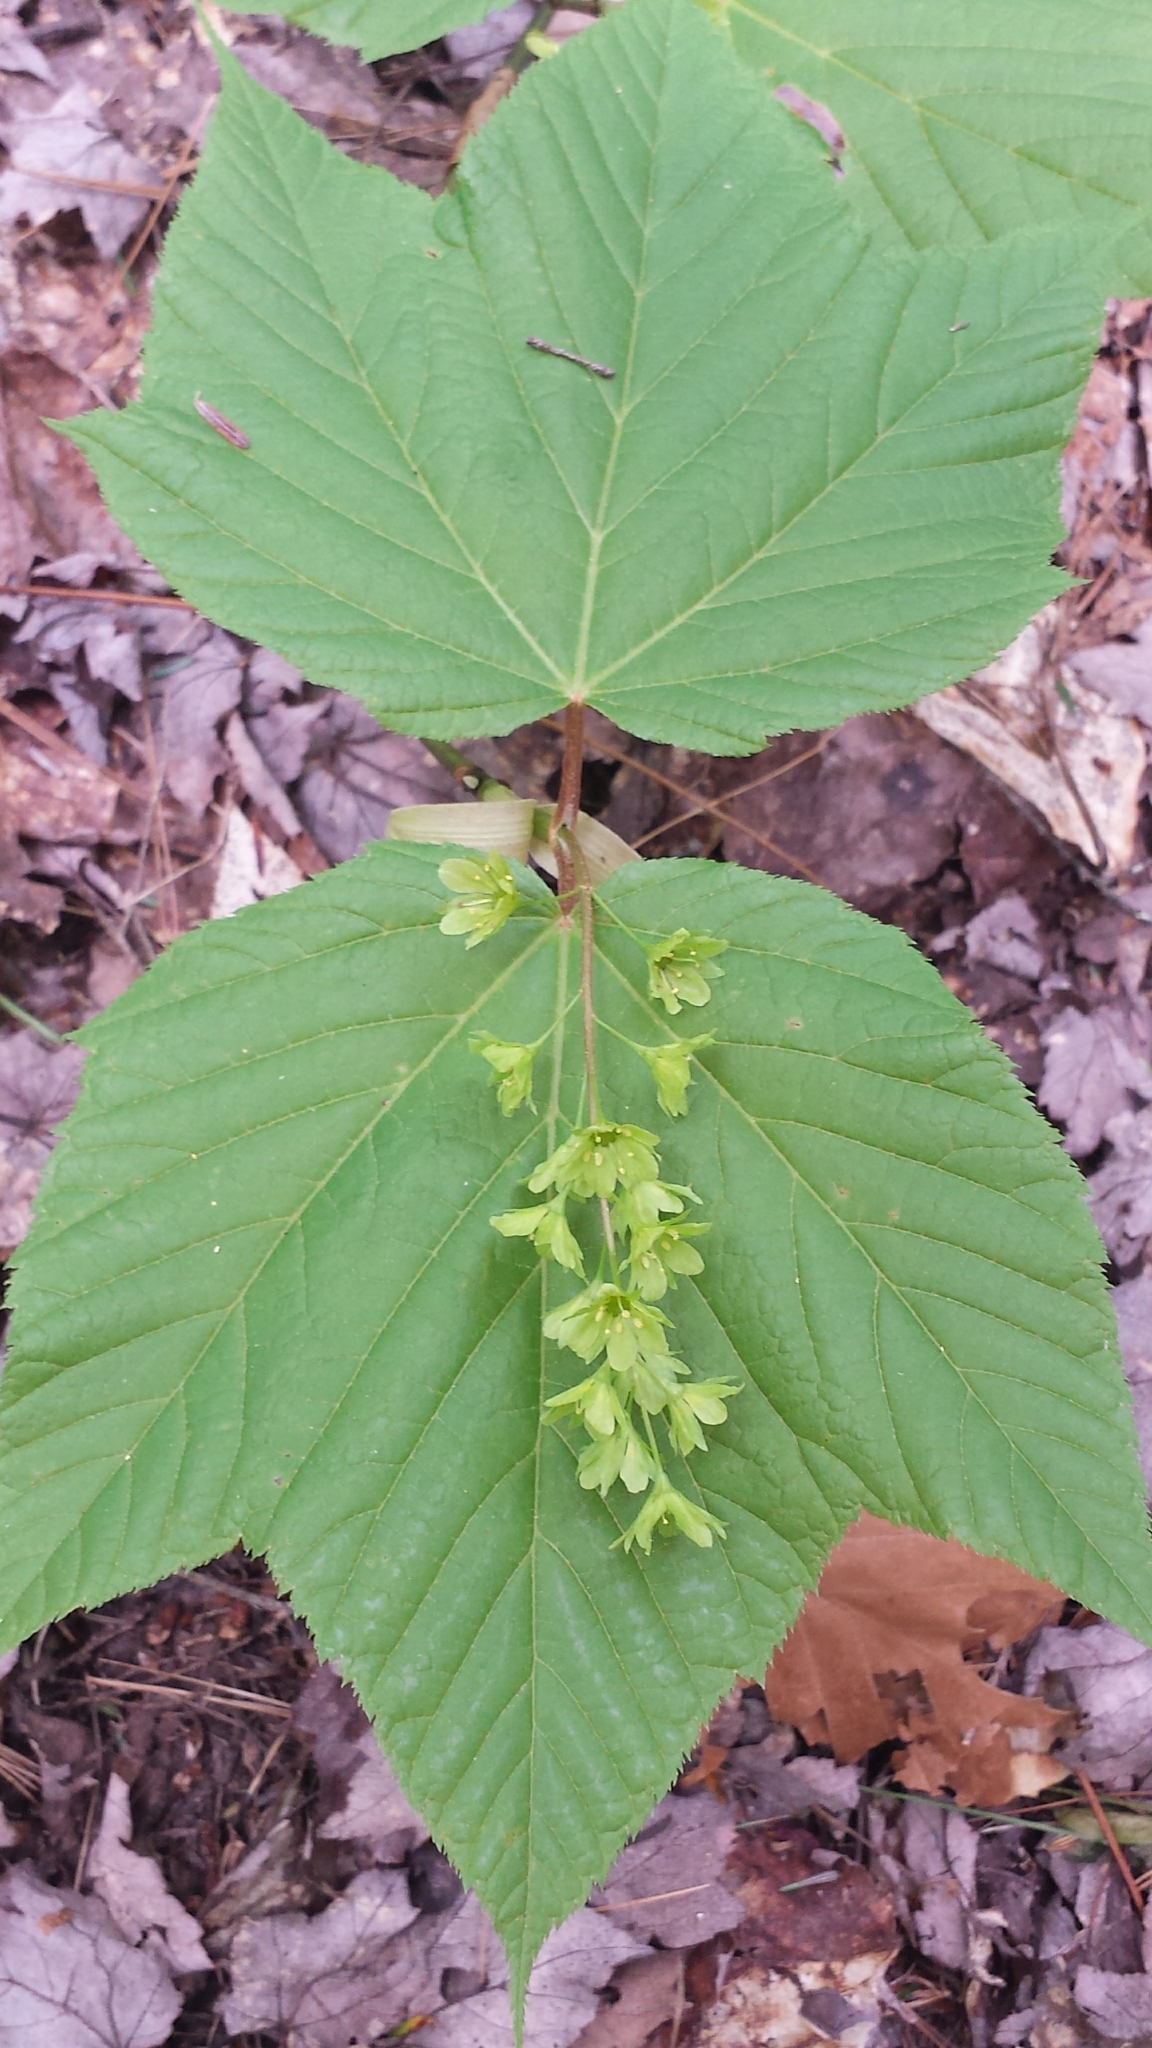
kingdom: Plantae
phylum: Tracheophyta
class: Magnoliopsida
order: Sapindales
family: Sapindaceae
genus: Acer
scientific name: Acer pensylvanicum
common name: Moosewood
